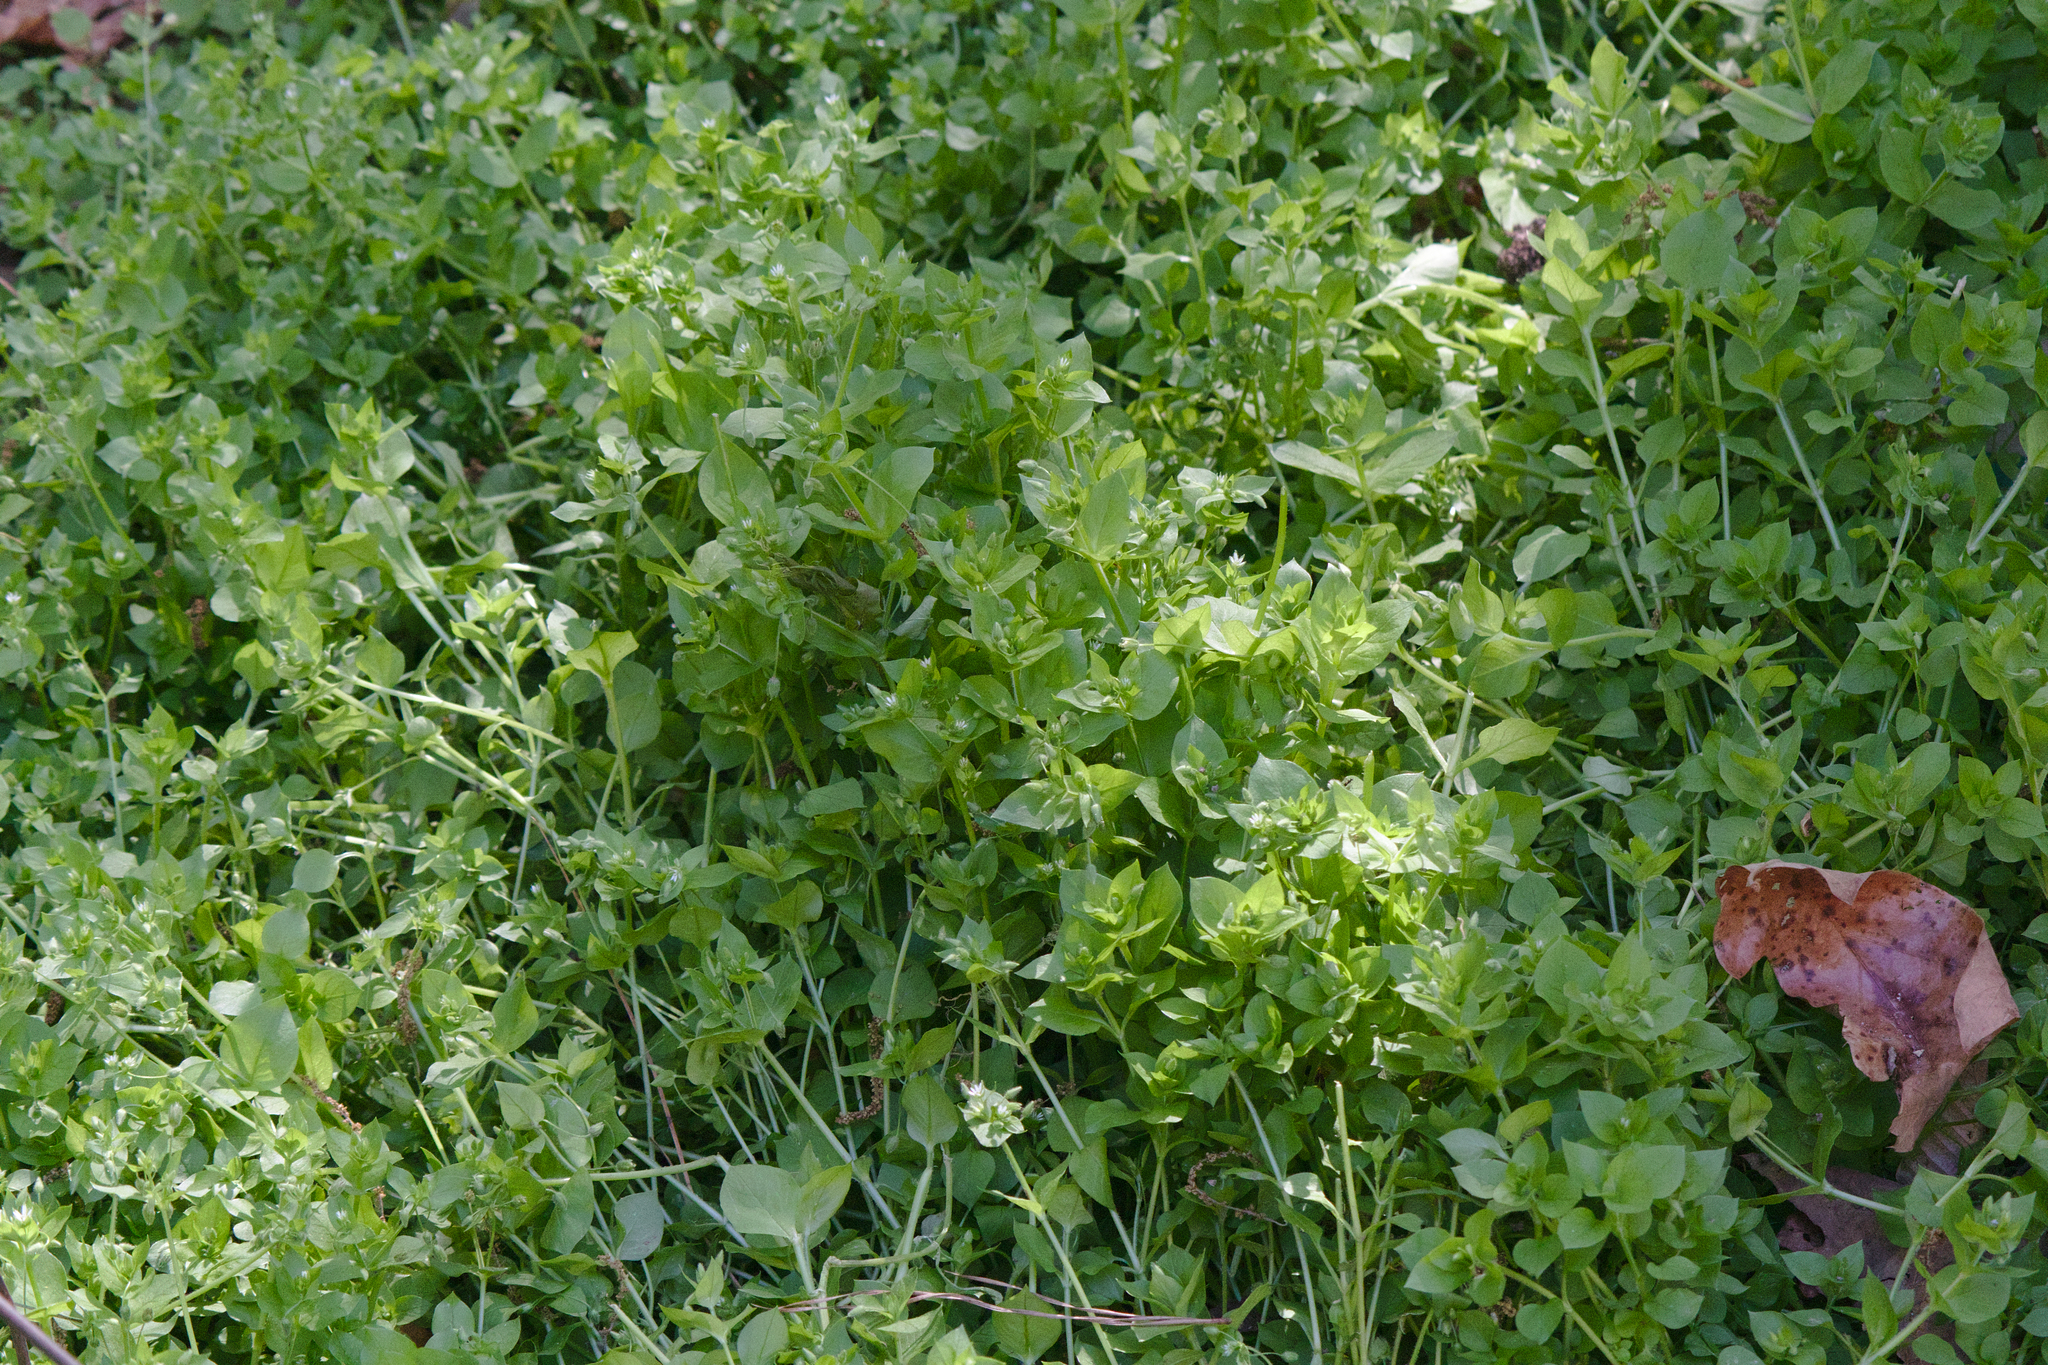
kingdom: Plantae
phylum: Tracheophyta
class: Magnoliopsida
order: Caryophyllales
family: Caryophyllaceae
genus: Stellaria
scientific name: Stellaria media
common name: Common chickweed
